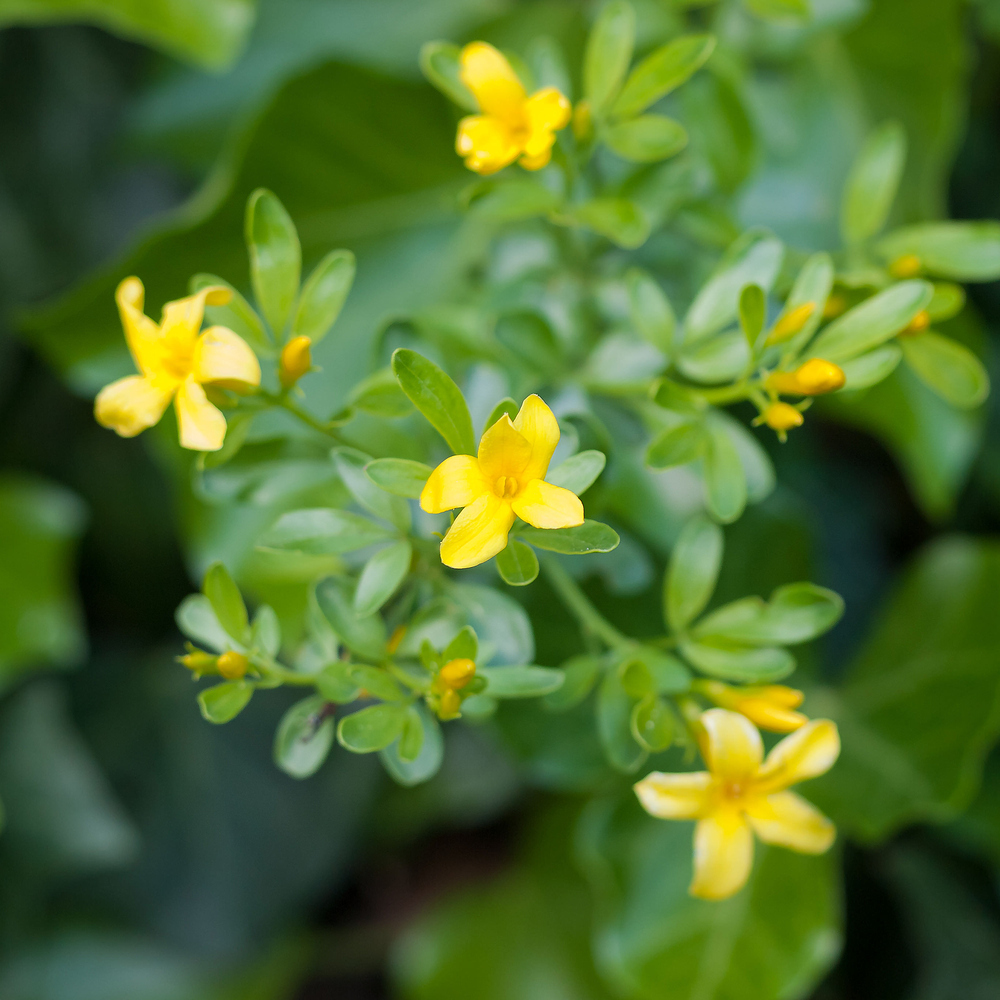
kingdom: Plantae
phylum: Tracheophyta
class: Magnoliopsida
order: Lamiales
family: Oleaceae
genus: Chrysojasminum
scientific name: Chrysojasminum fruticans
